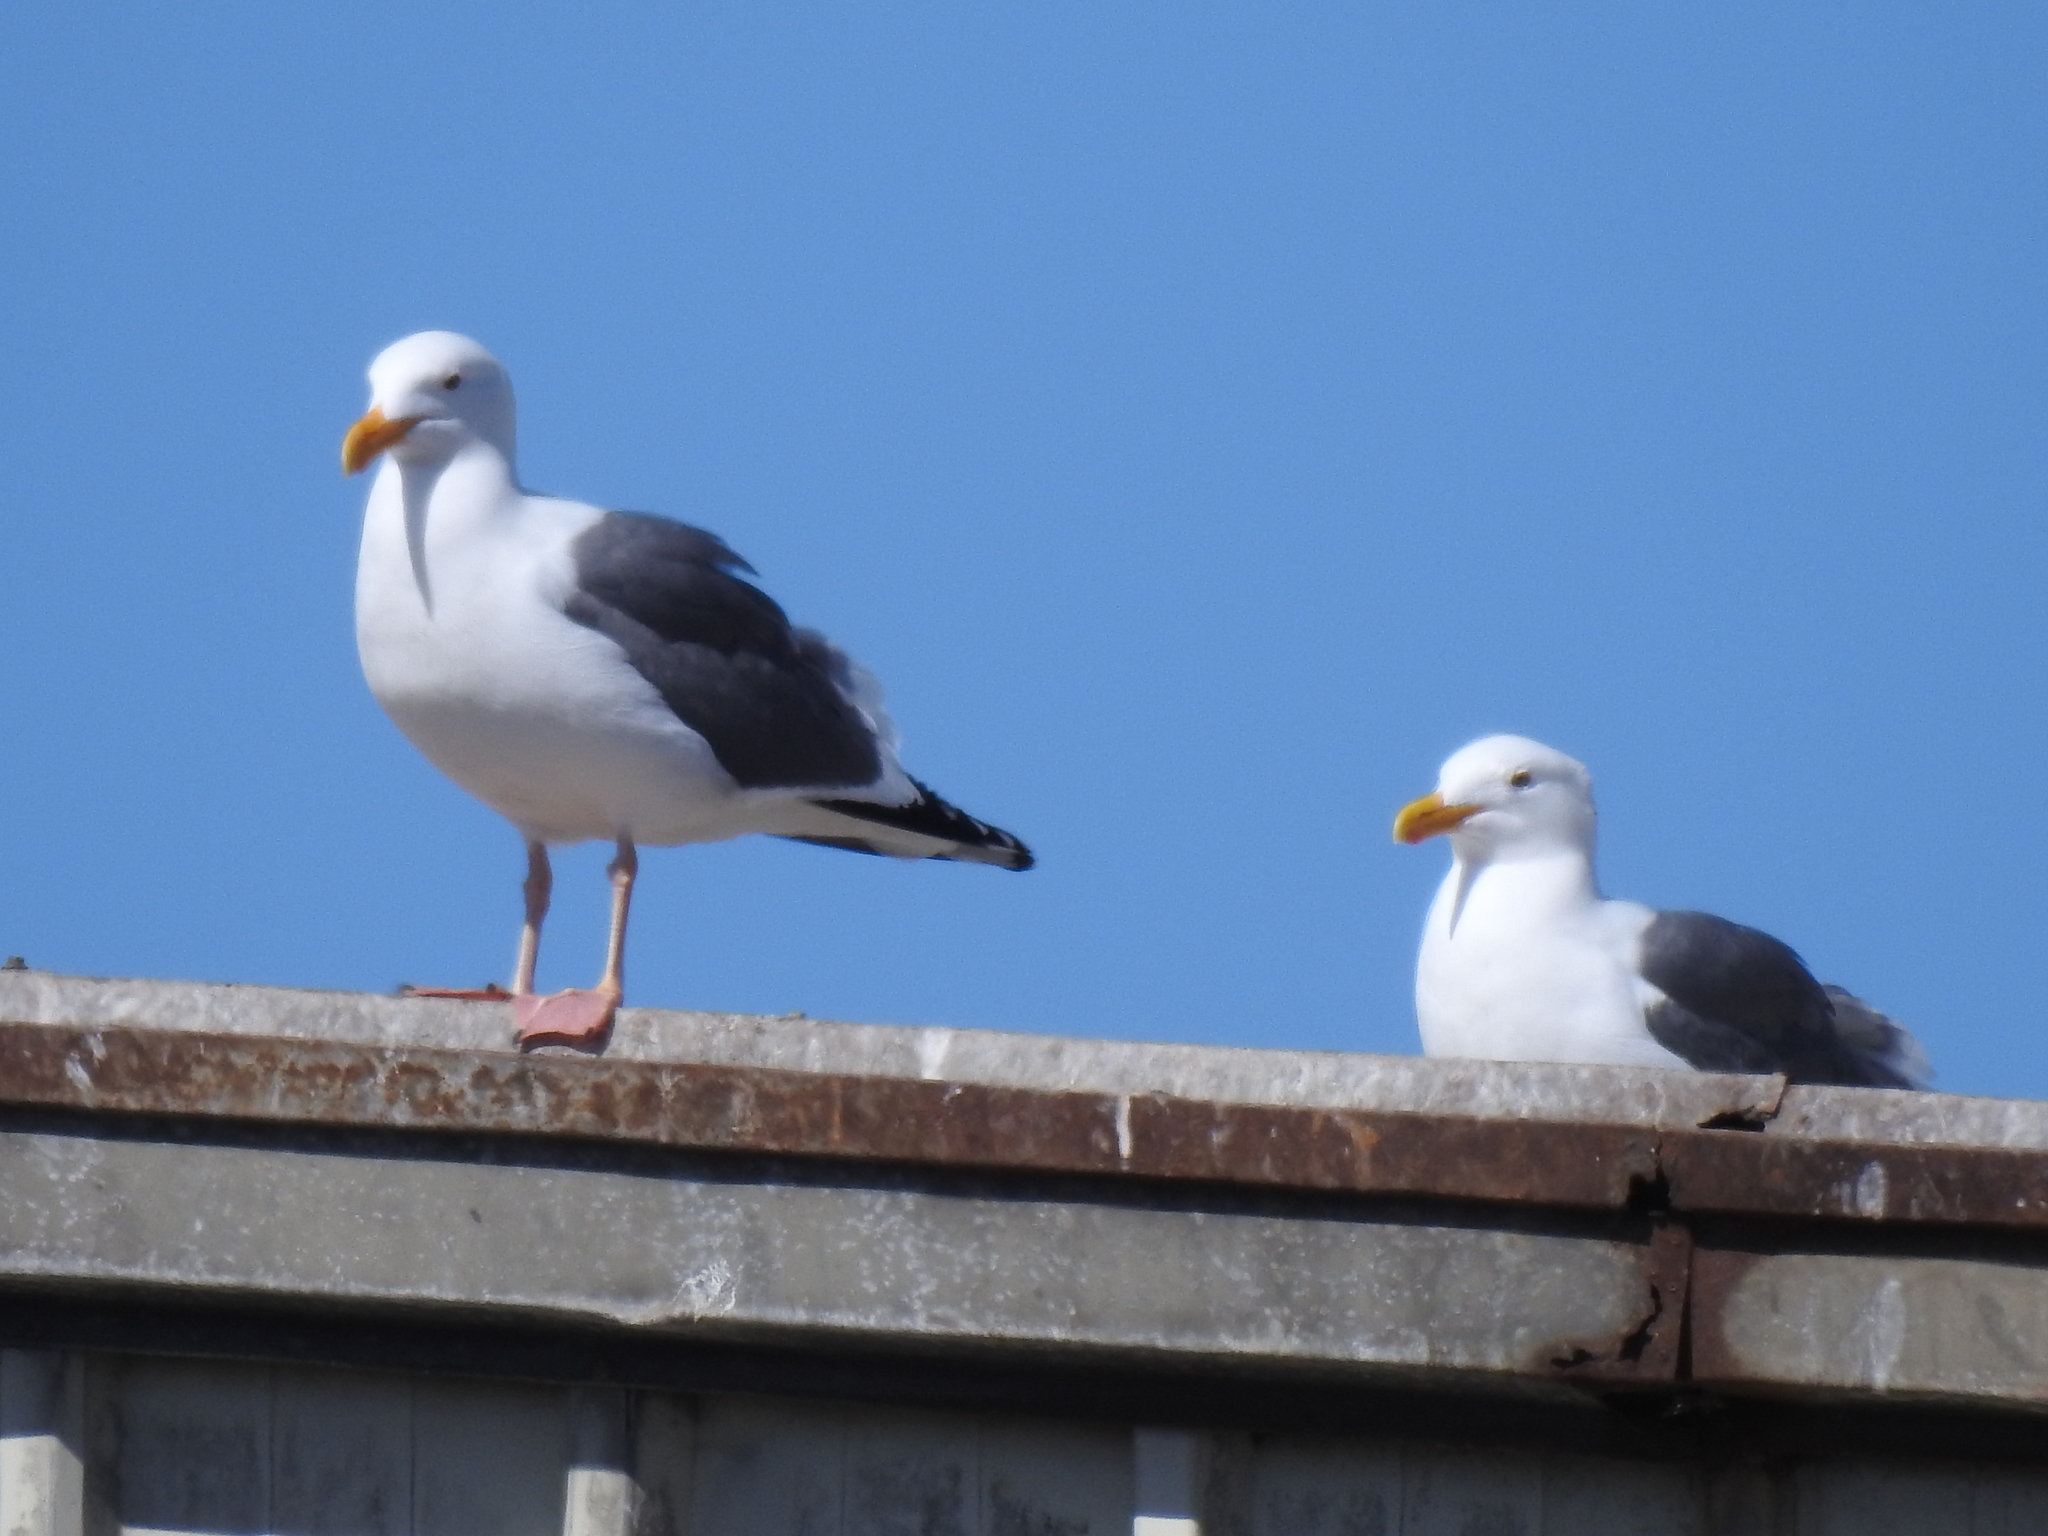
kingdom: Animalia
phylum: Chordata
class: Aves
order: Charadriiformes
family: Laridae
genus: Larus
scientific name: Larus occidentalis
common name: Western gull
